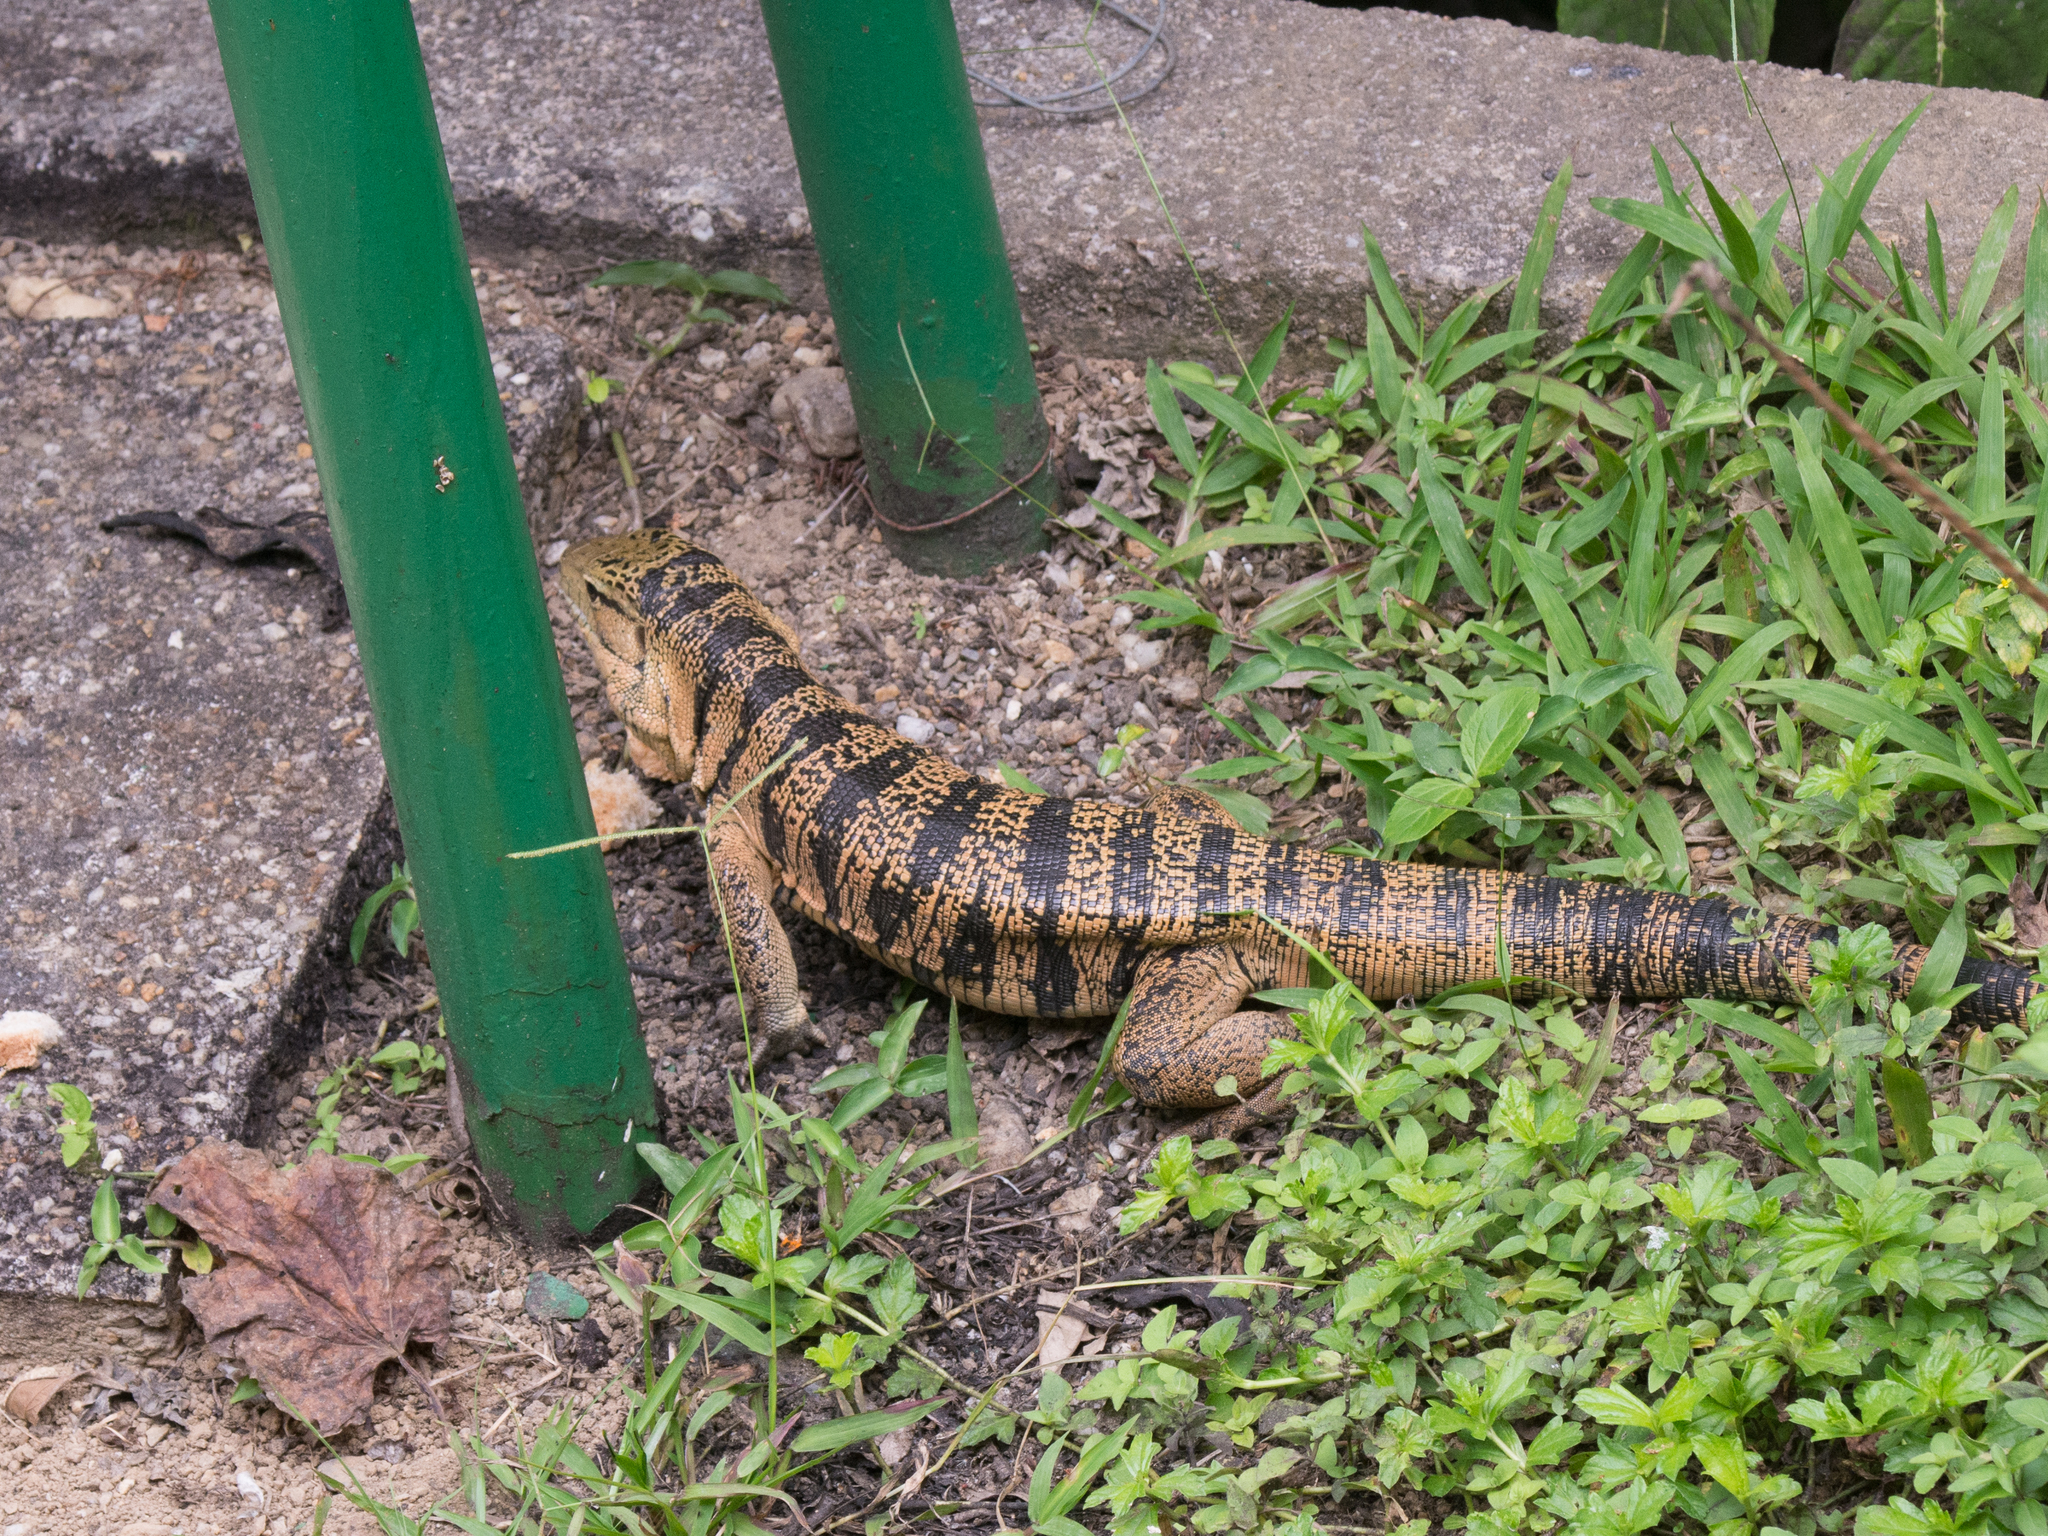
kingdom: Animalia
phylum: Chordata
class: Squamata
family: Teiidae
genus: Tupinambis
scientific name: Tupinambis cryptus
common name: Cryptic golden tegu
